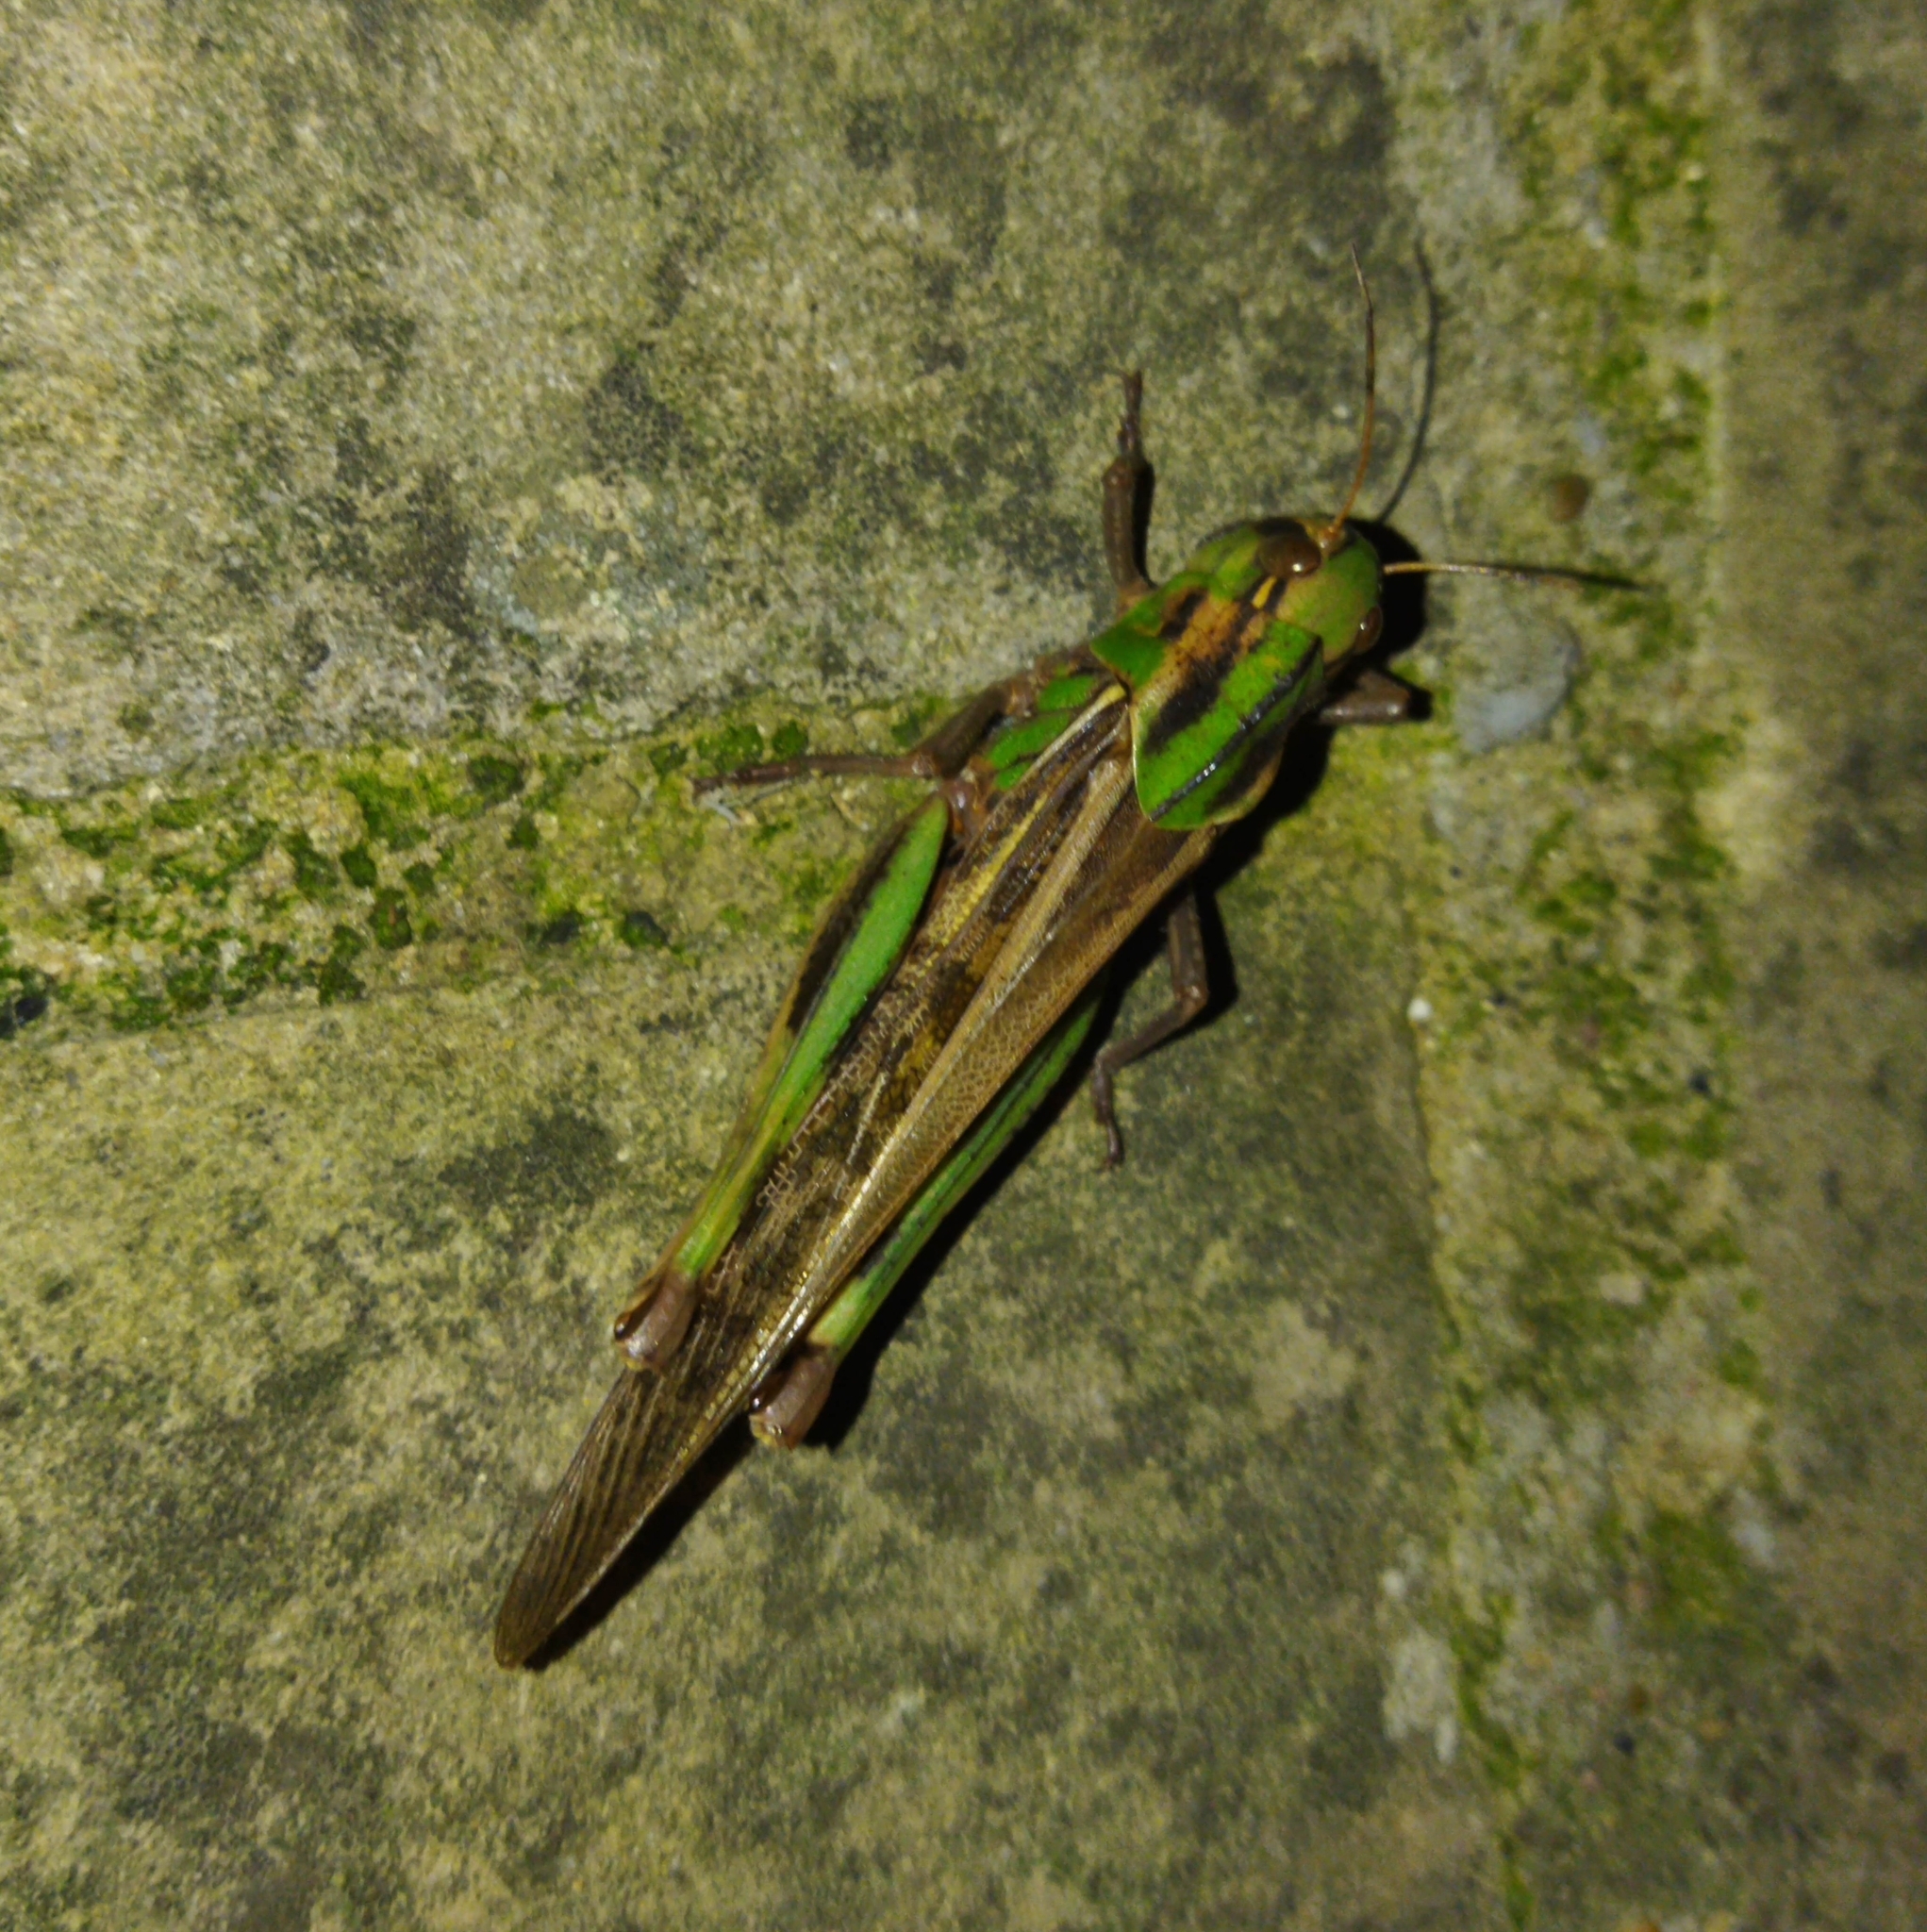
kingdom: Animalia
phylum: Arthropoda
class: Insecta
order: Orthoptera
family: Acrididae
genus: Locusta
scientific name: Locusta migratoria
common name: Migratory locust
